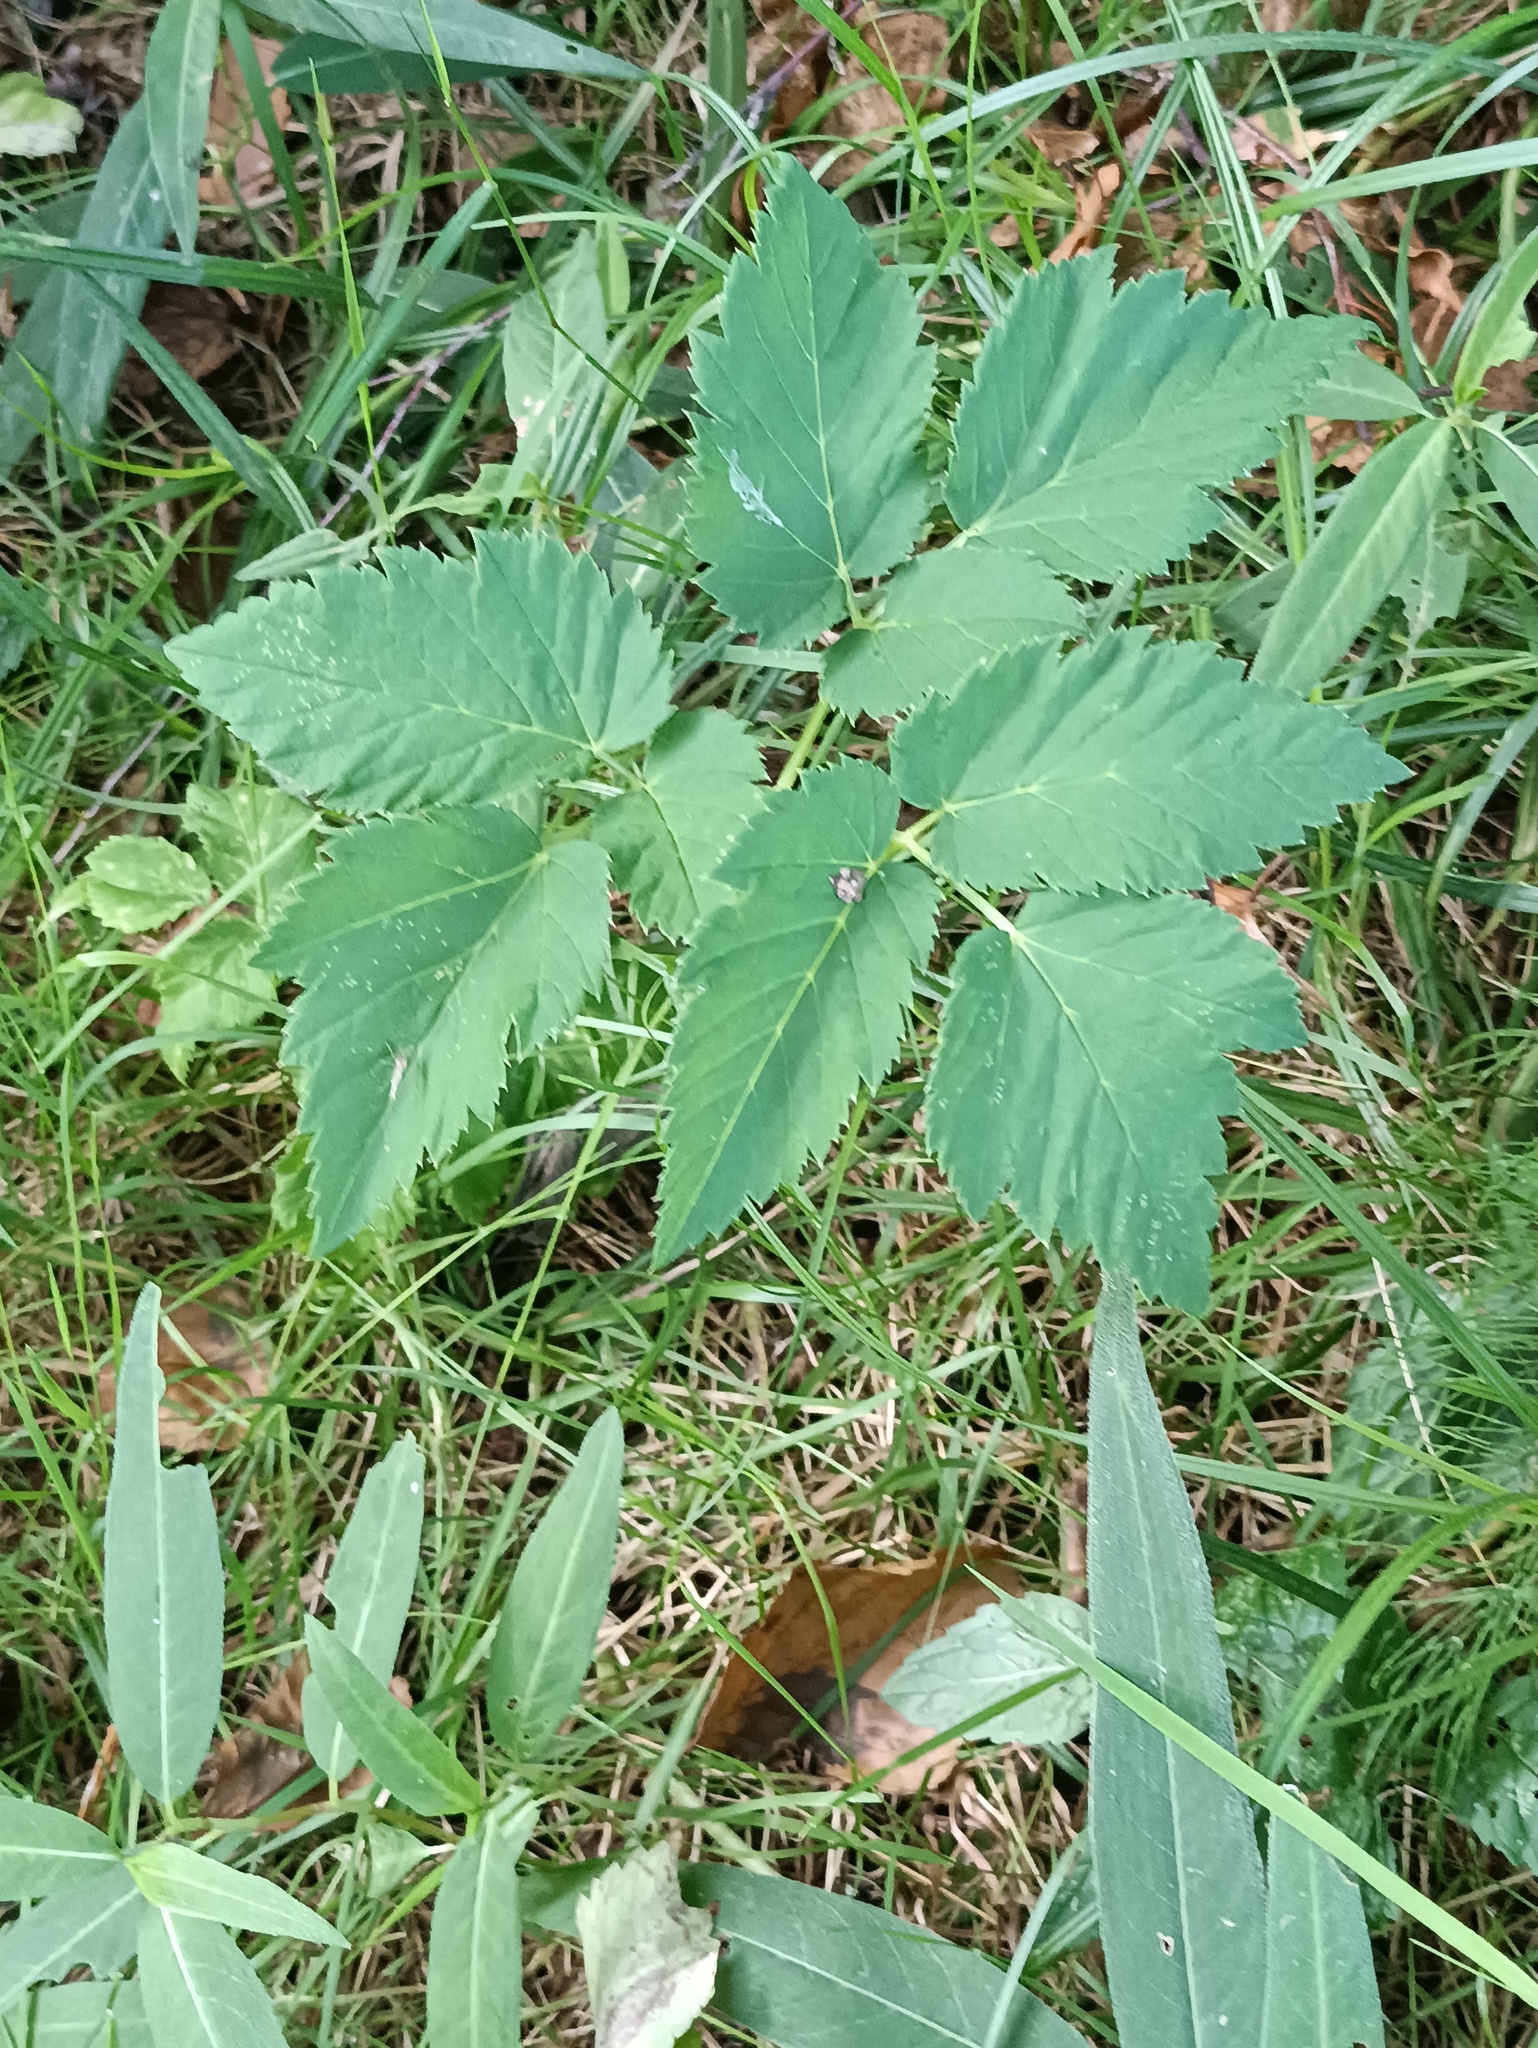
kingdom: Plantae
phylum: Tracheophyta
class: Magnoliopsida
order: Apiales
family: Apiaceae
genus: Aegopodium
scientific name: Aegopodium podagraria
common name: Ground-elder
